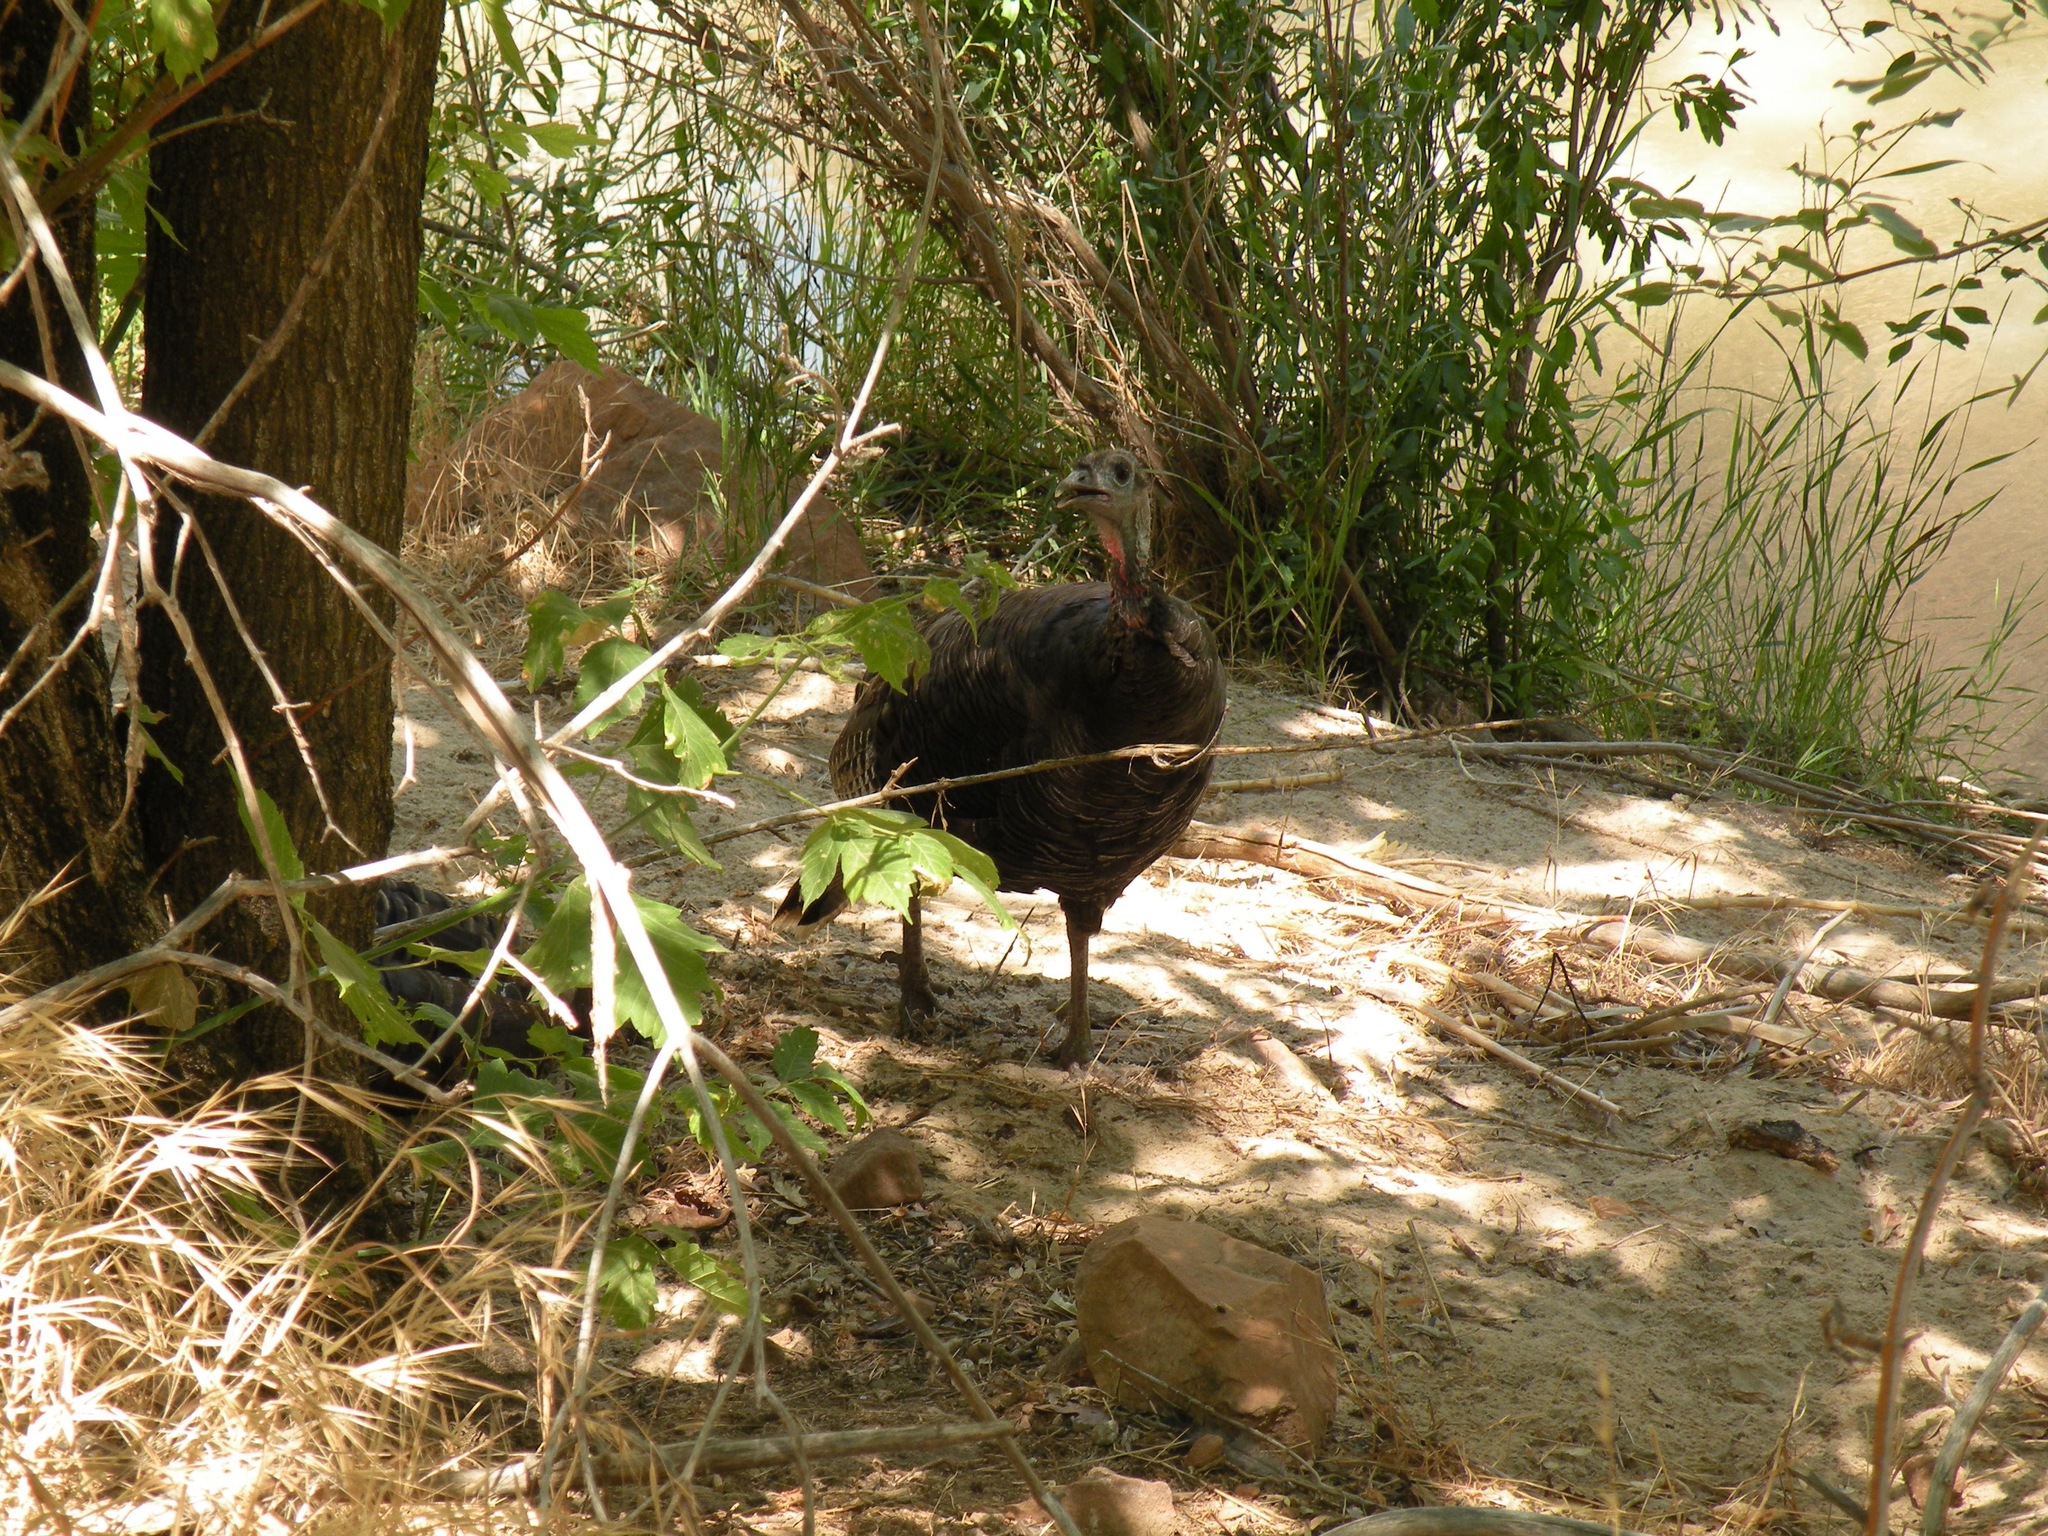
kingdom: Animalia
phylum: Chordata
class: Aves
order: Galliformes
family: Phasianidae
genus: Meleagris
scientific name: Meleagris gallopavo
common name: Wild turkey
